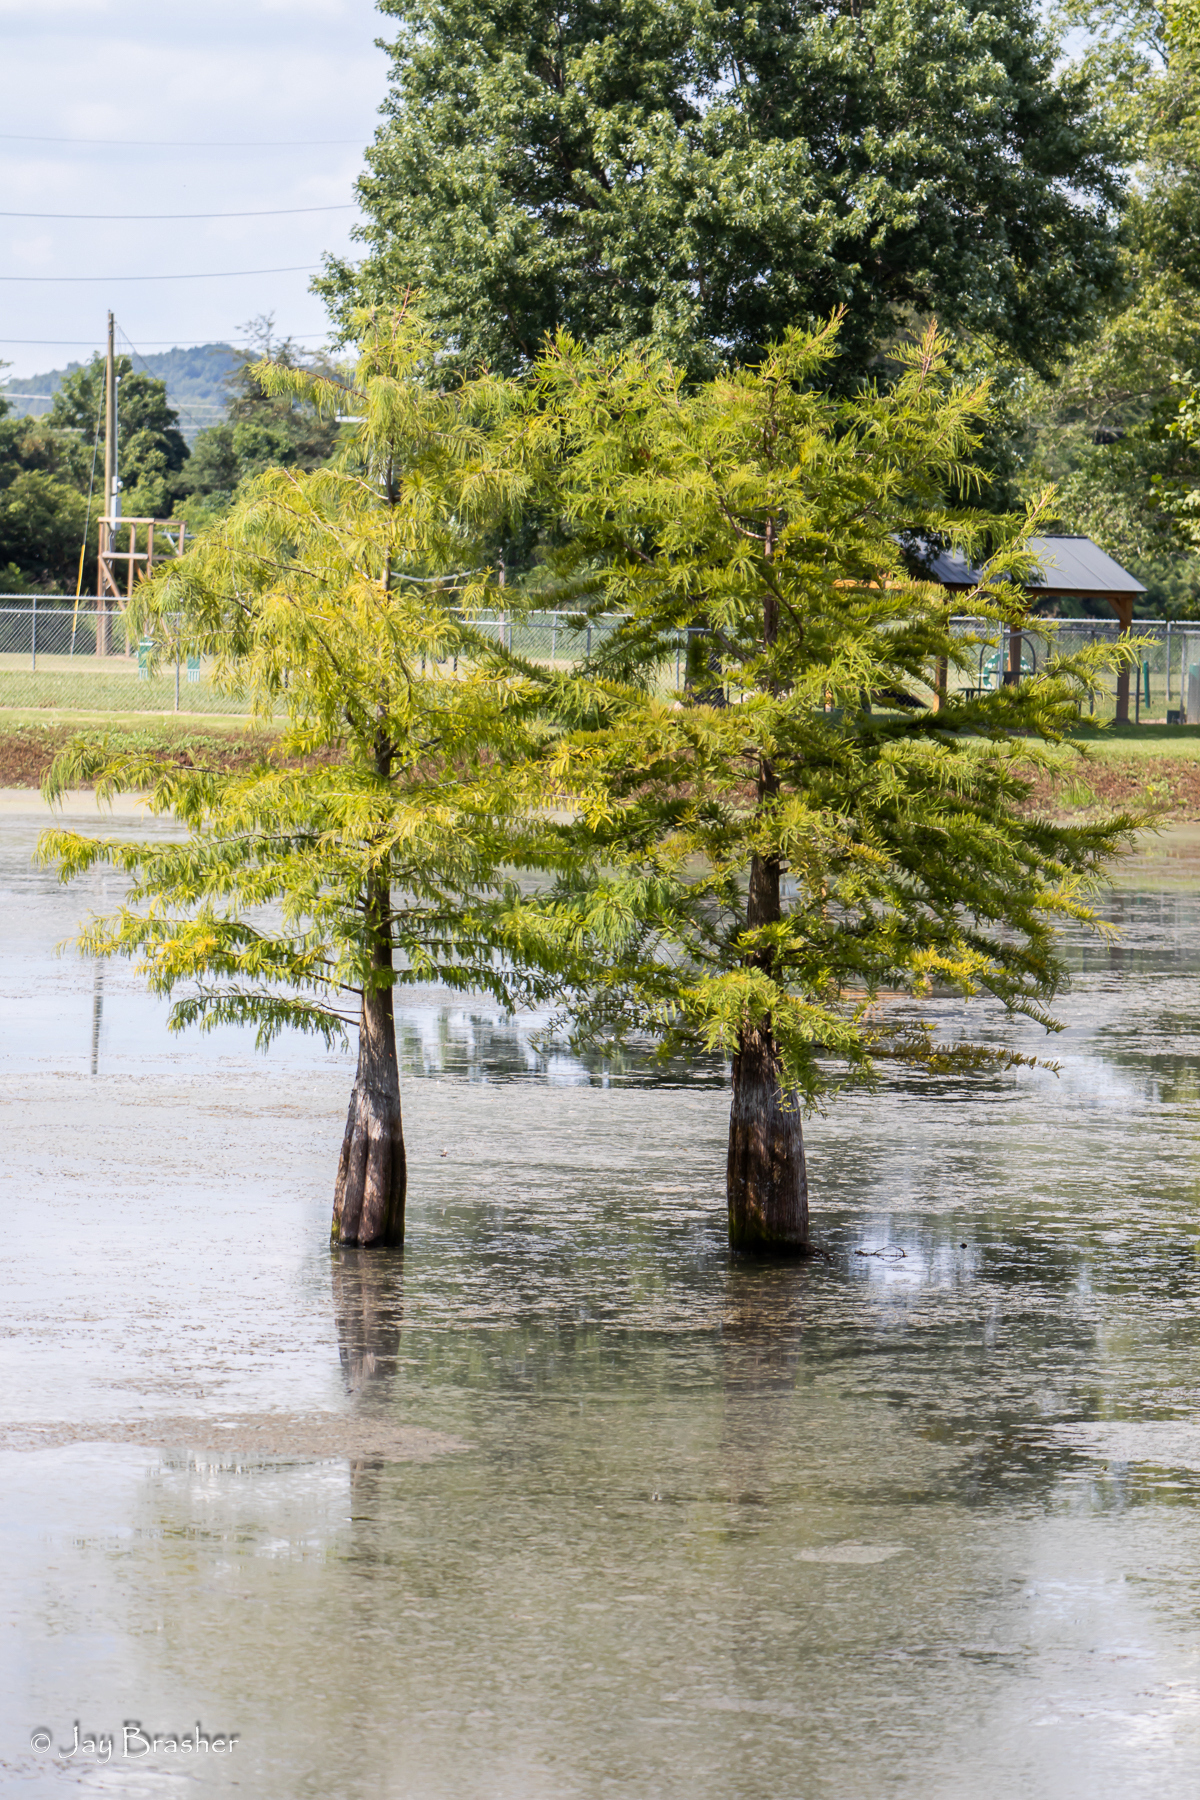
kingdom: Plantae
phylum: Tracheophyta
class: Pinopsida
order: Pinales
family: Cupressaceae
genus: Taxodium
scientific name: Taxodium distichum
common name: Bald cypress
